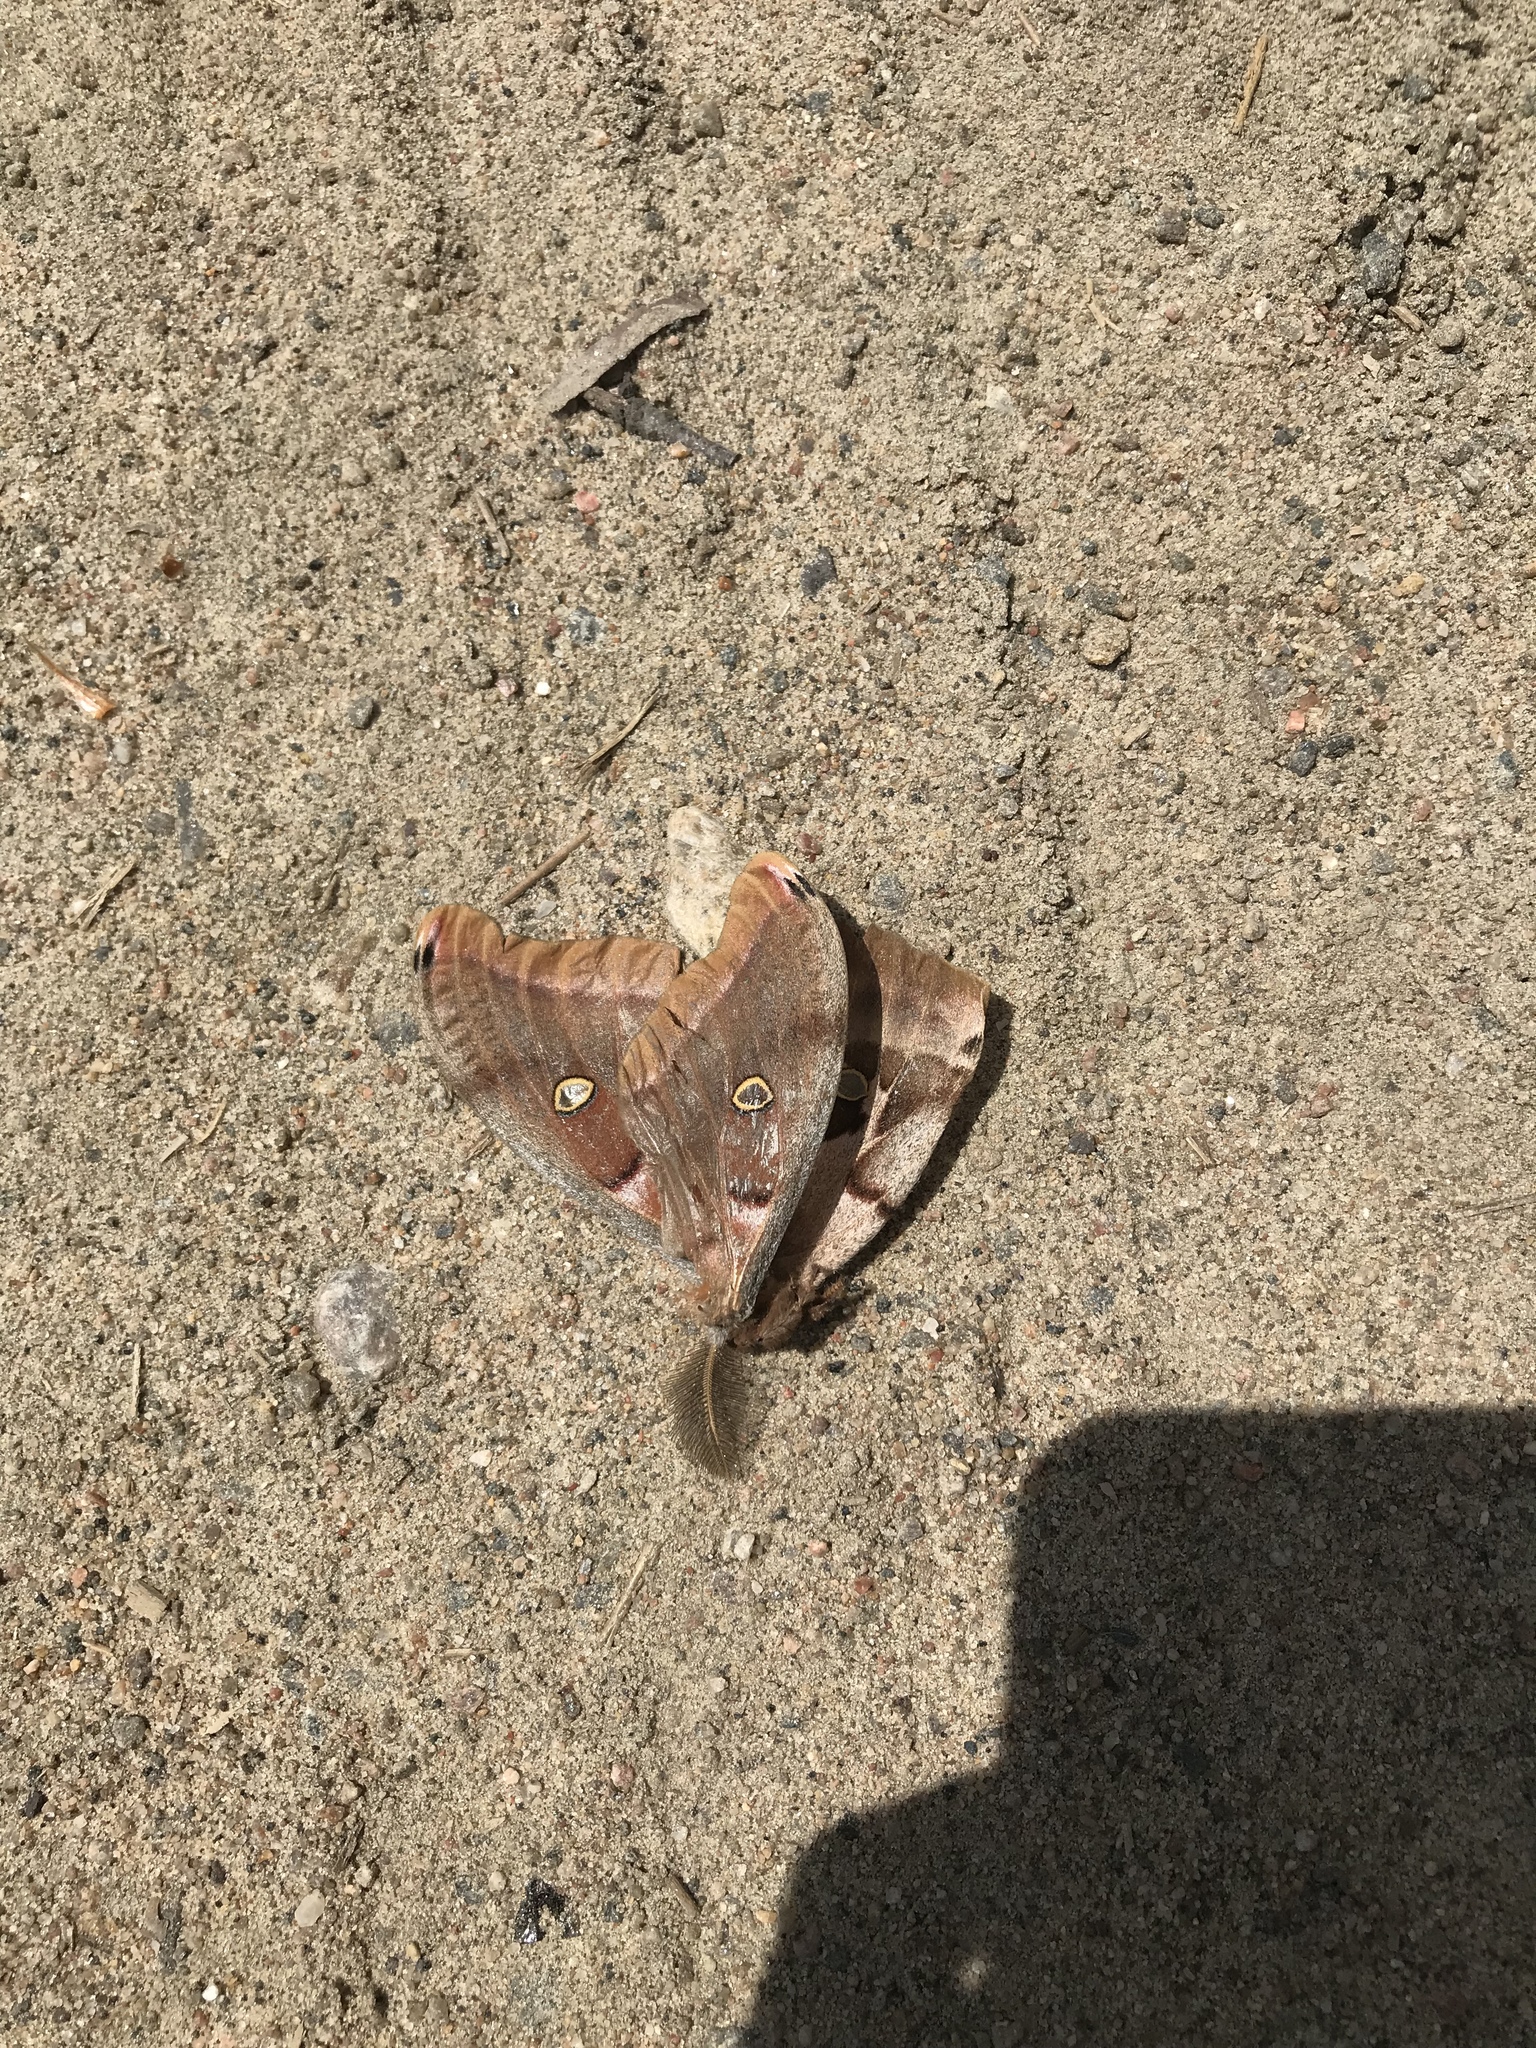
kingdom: Animalia
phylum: Arthropoda
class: Insecta
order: Lepidoptera
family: Saturniidae
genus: Antheraea
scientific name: Antheraea polyphemus
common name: Polyphemus moth
